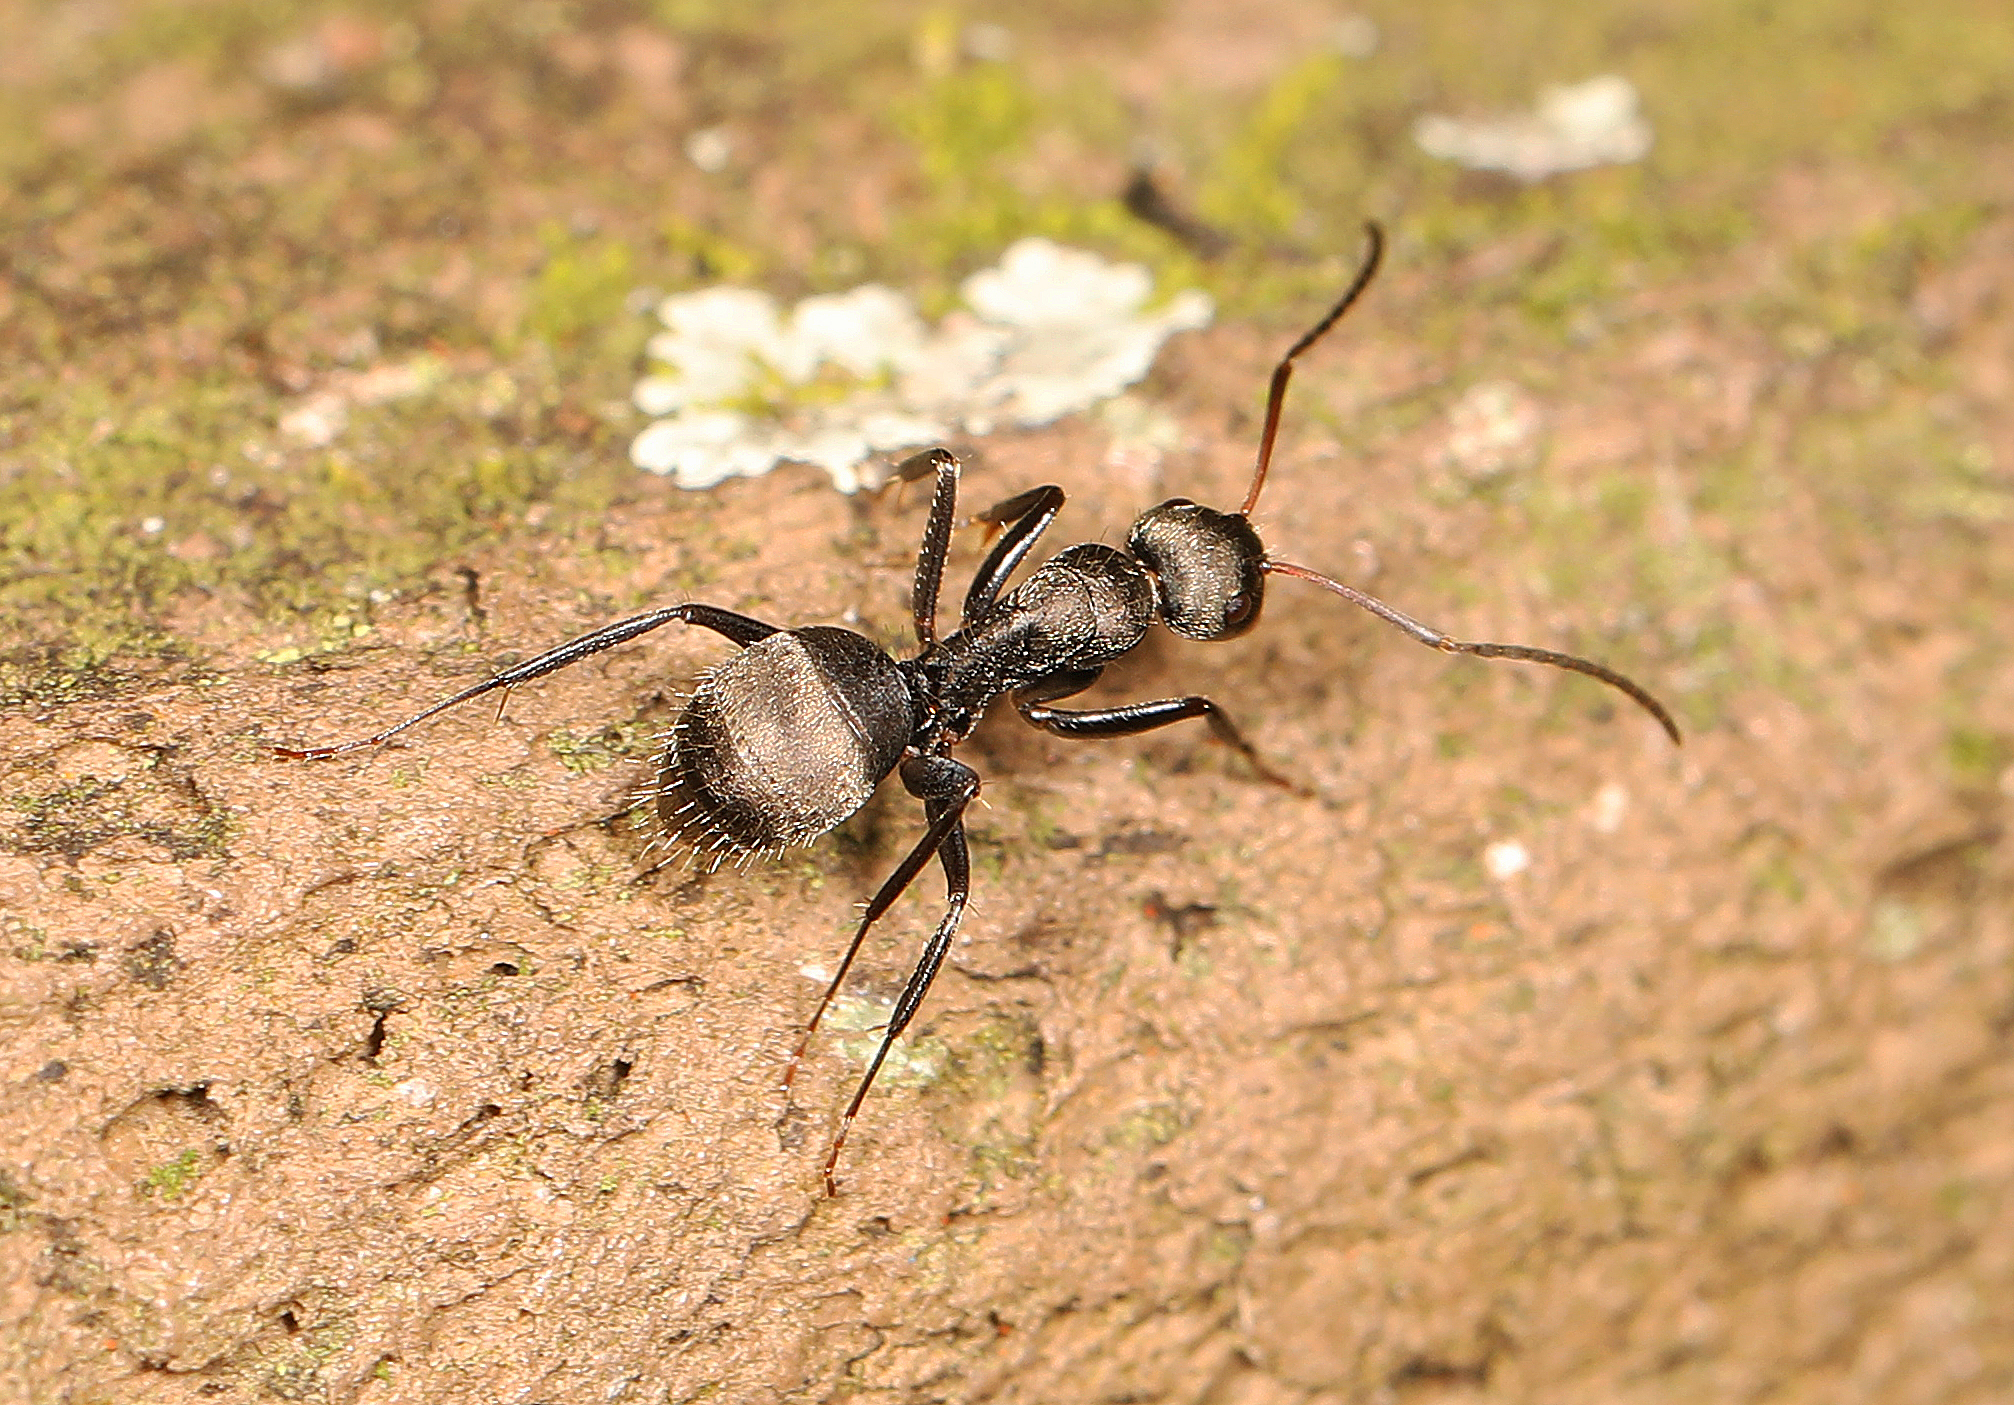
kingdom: Animalia
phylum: Arthropoda
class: Insecta
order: Hymenoptera
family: Formicidae
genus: Camponotus
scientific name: Camponotus novogranadensis
